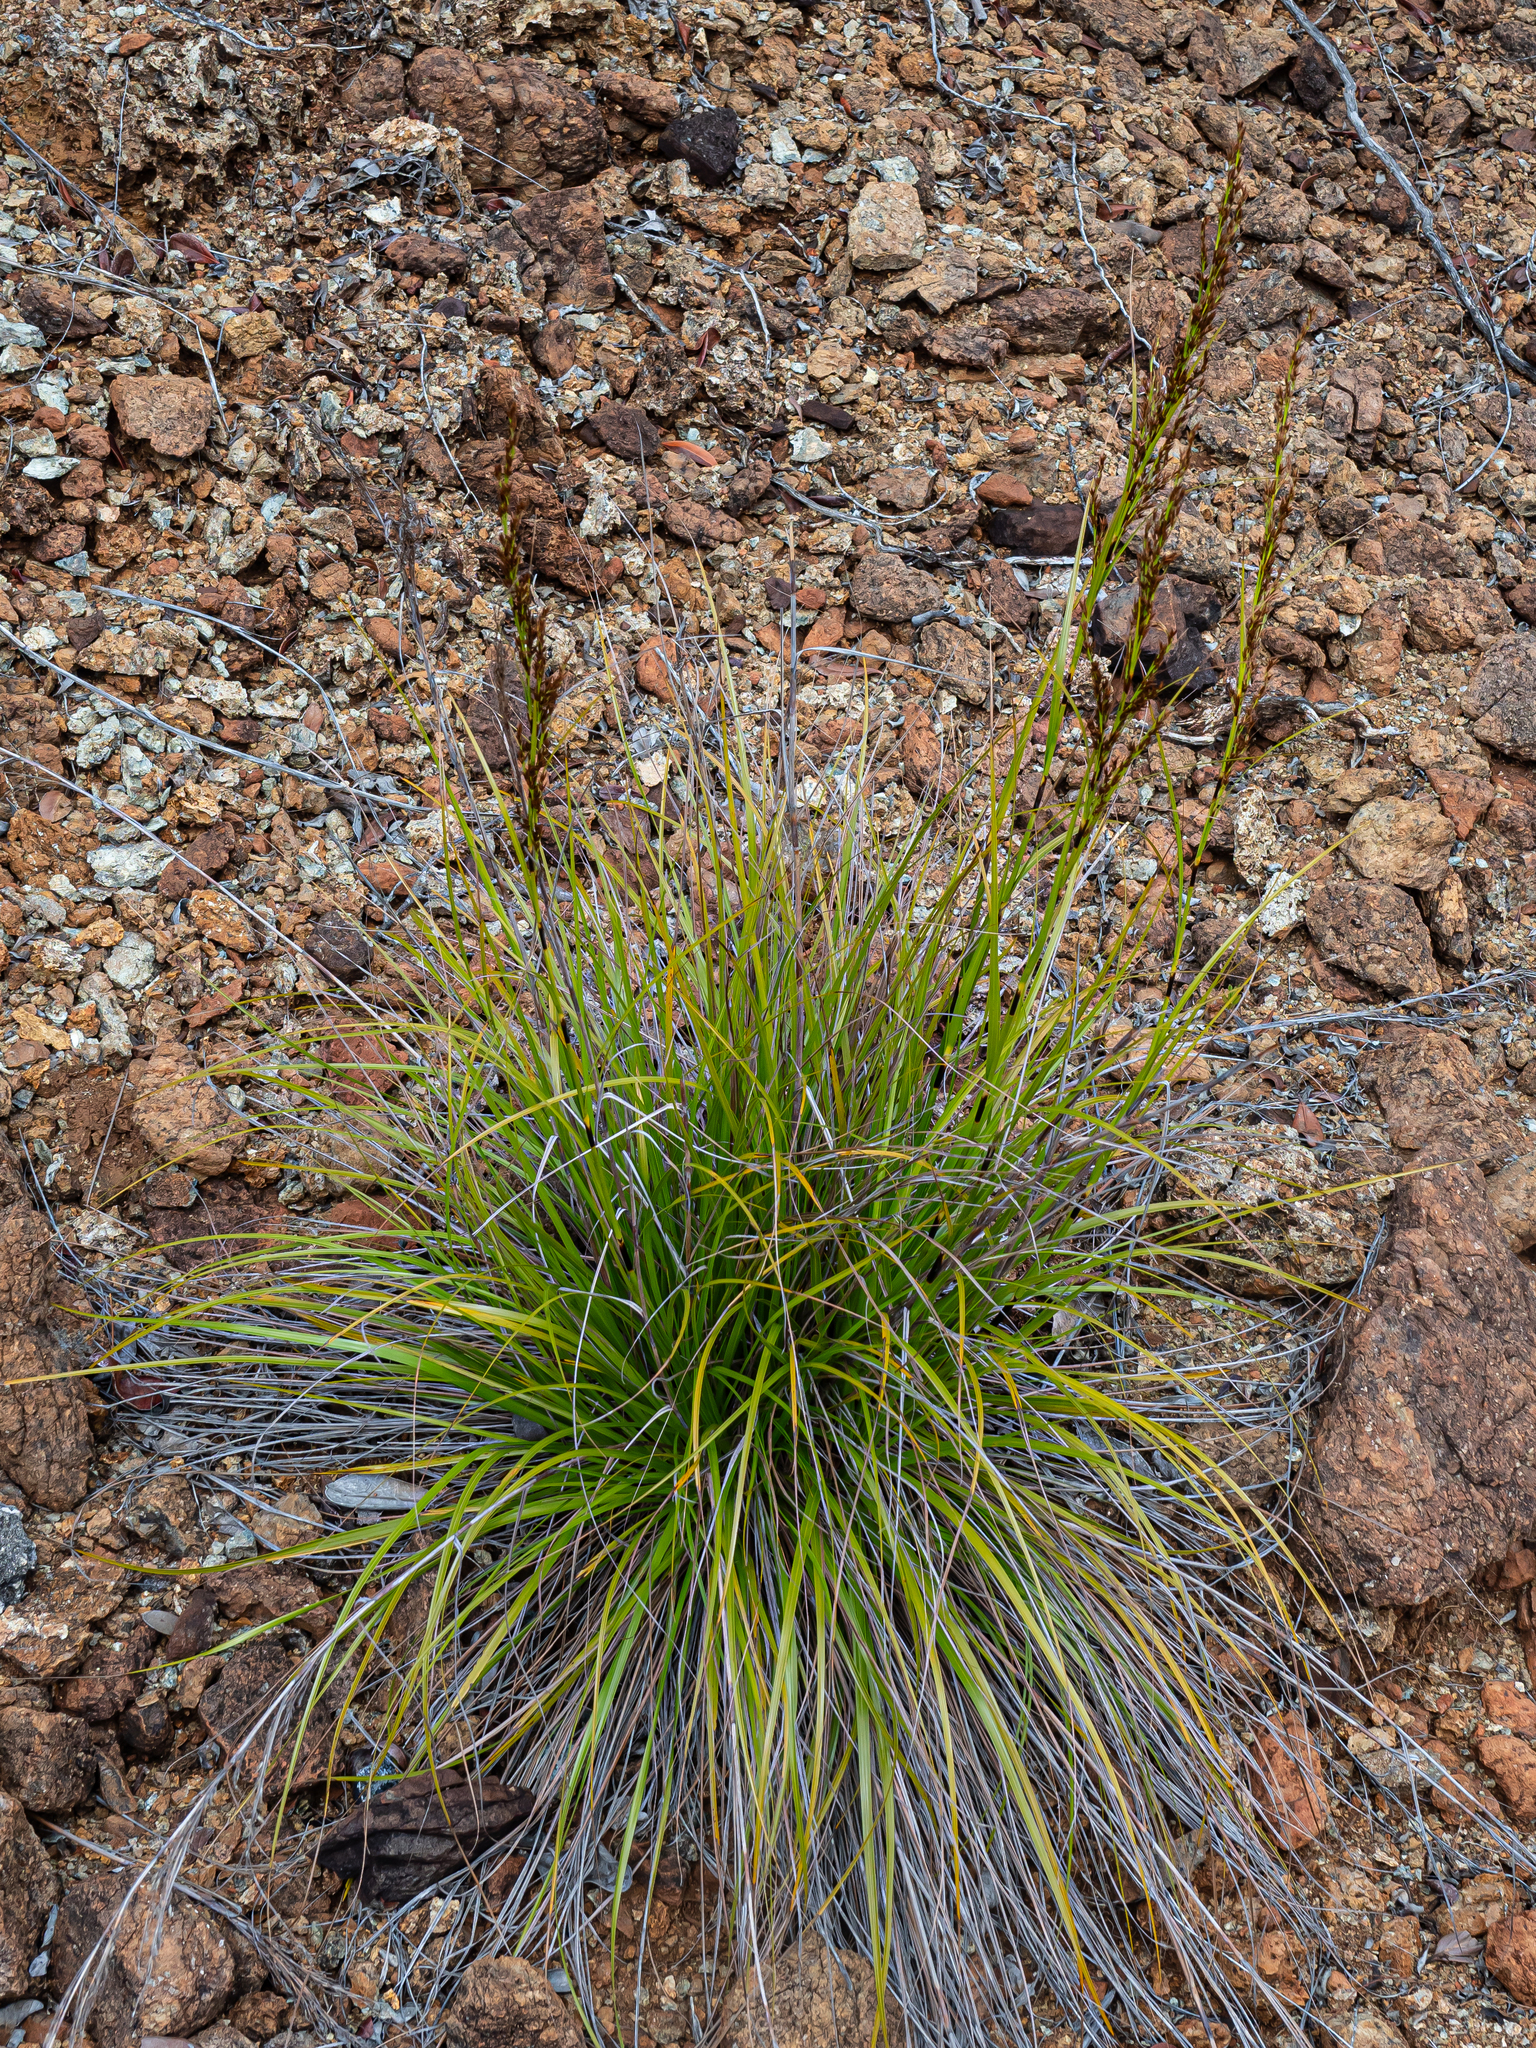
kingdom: Plantae
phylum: Tracheophyta
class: Liliopsida
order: Poales
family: Cyperaceae
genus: Tetraria
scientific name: Tetraria comosa
